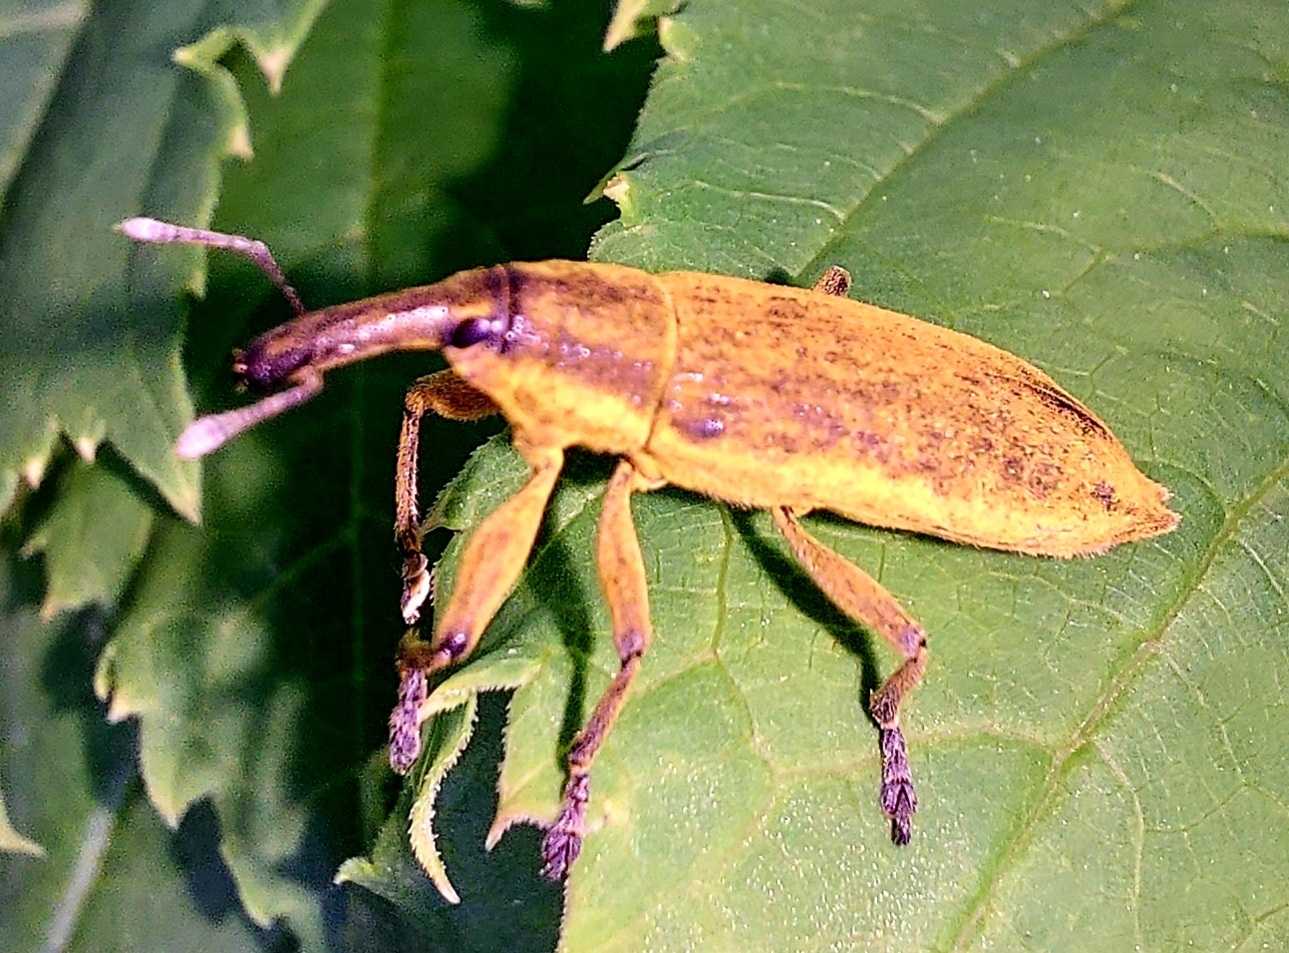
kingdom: Animalia
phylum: Arthropoda
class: Insecta
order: Coleoptera
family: Curculionidae
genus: Lixus
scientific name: Lixus iridis
